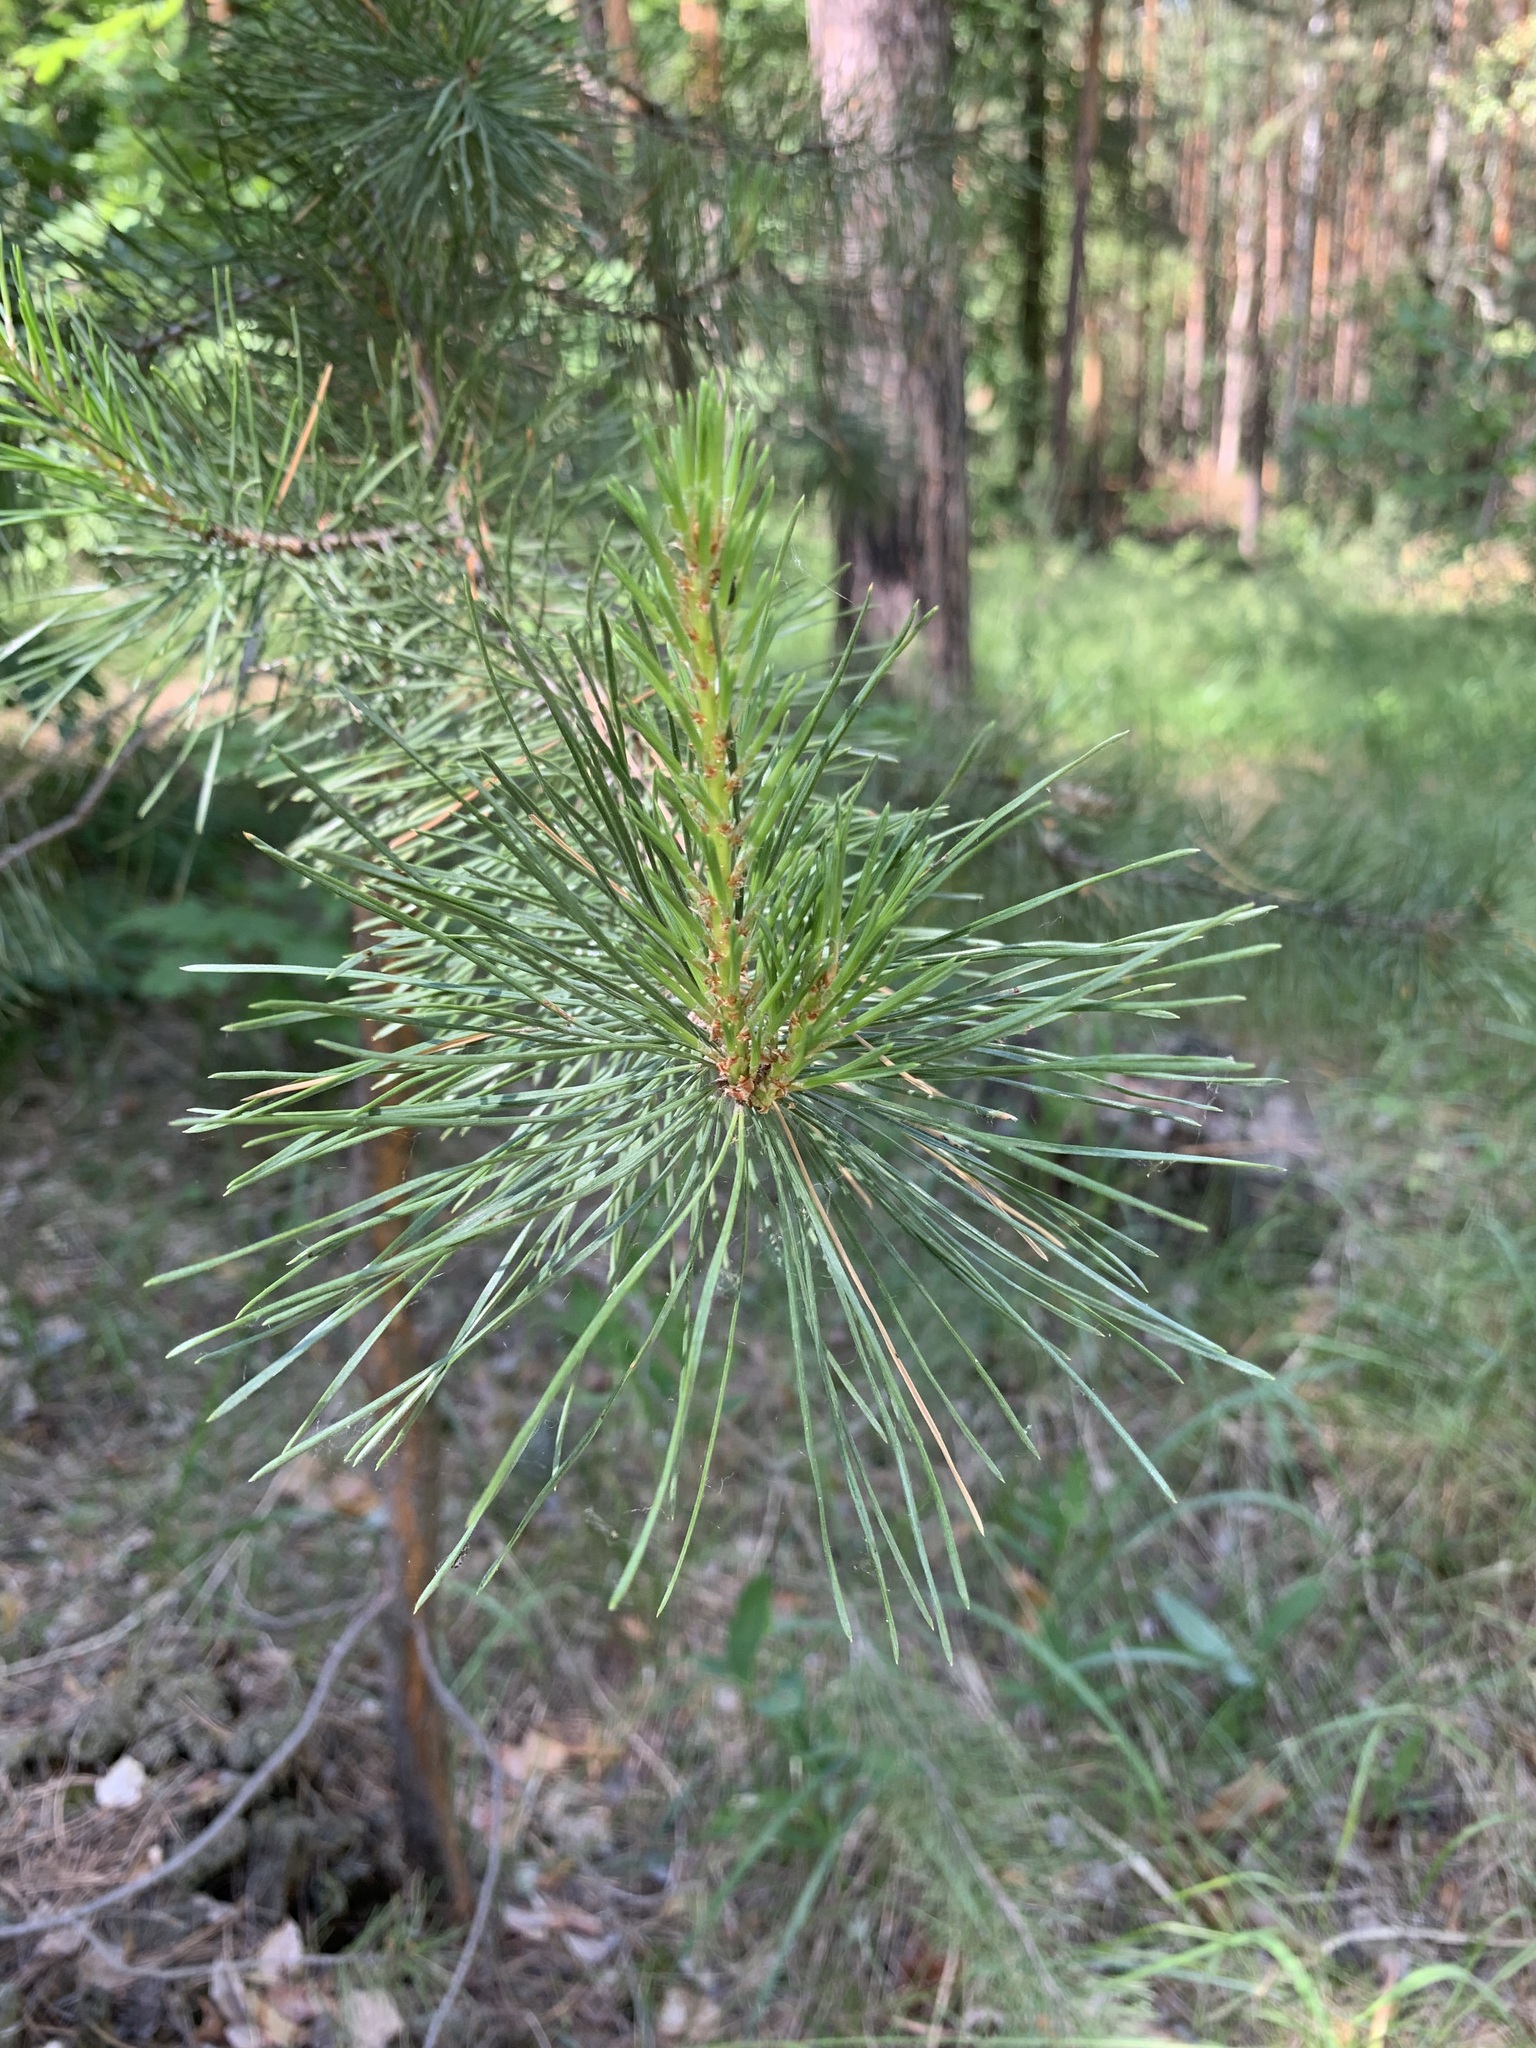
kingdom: Plantae
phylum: Tracheophyta
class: Pinopsida
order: Pinales
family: Pinaceae
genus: Pinus
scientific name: Pinus sylvestris
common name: Scots pine
